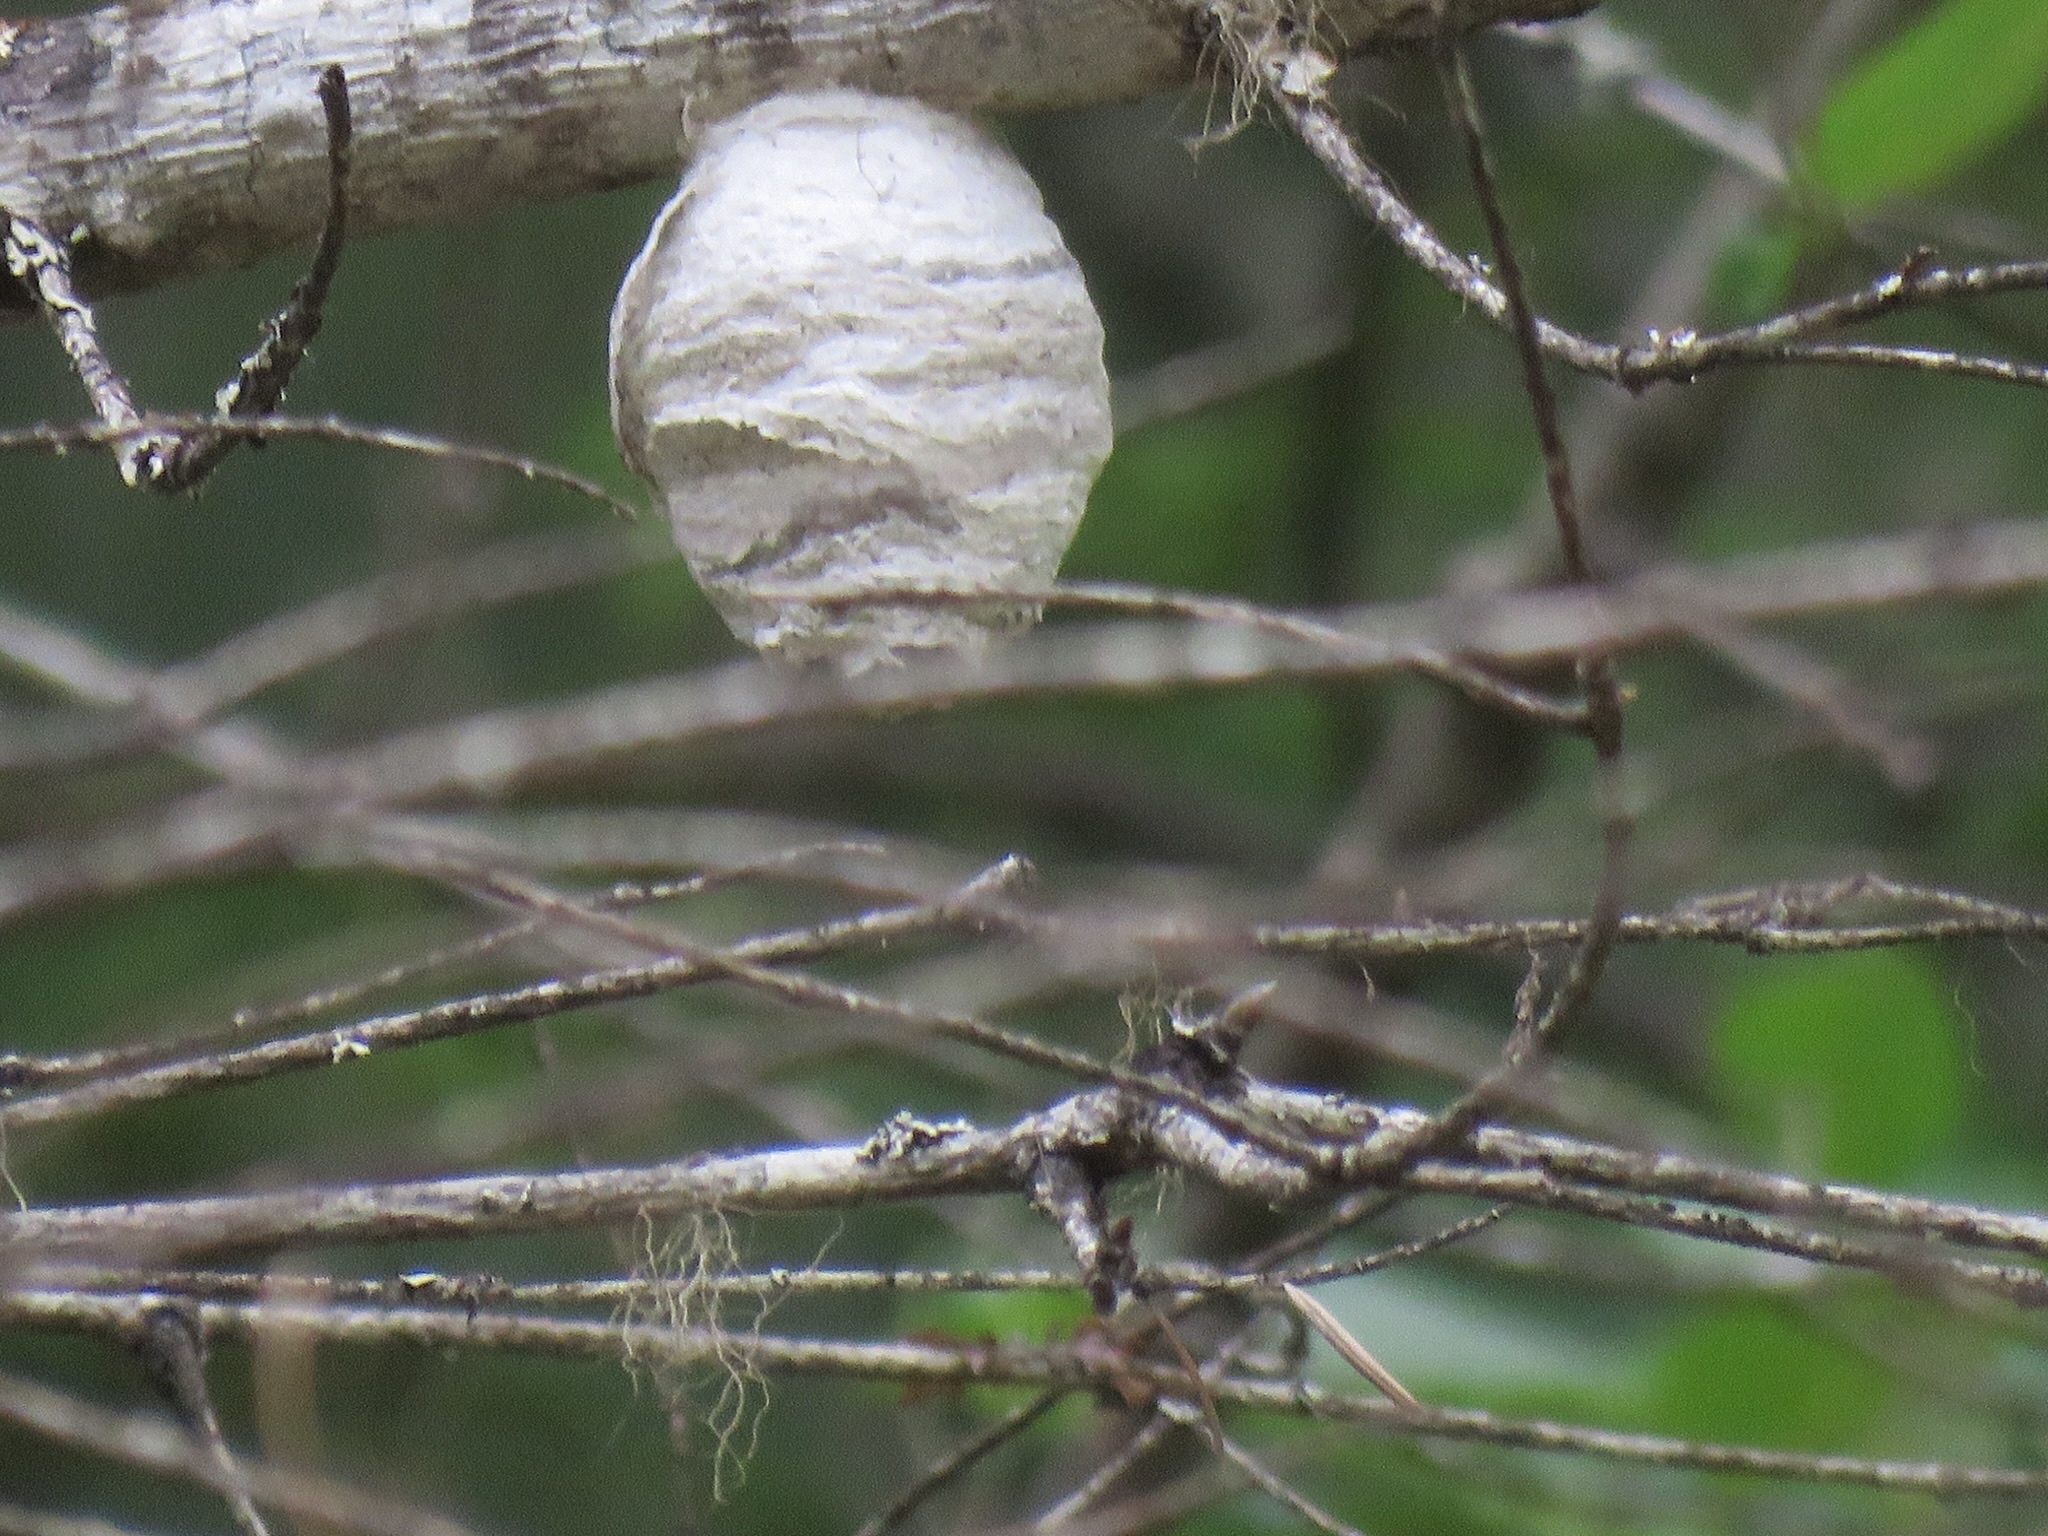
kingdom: Animalia
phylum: Arthropoda
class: Insecta
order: Hymenoptera
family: Vespidae
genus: Dolichovespula
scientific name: Dolichovespula
